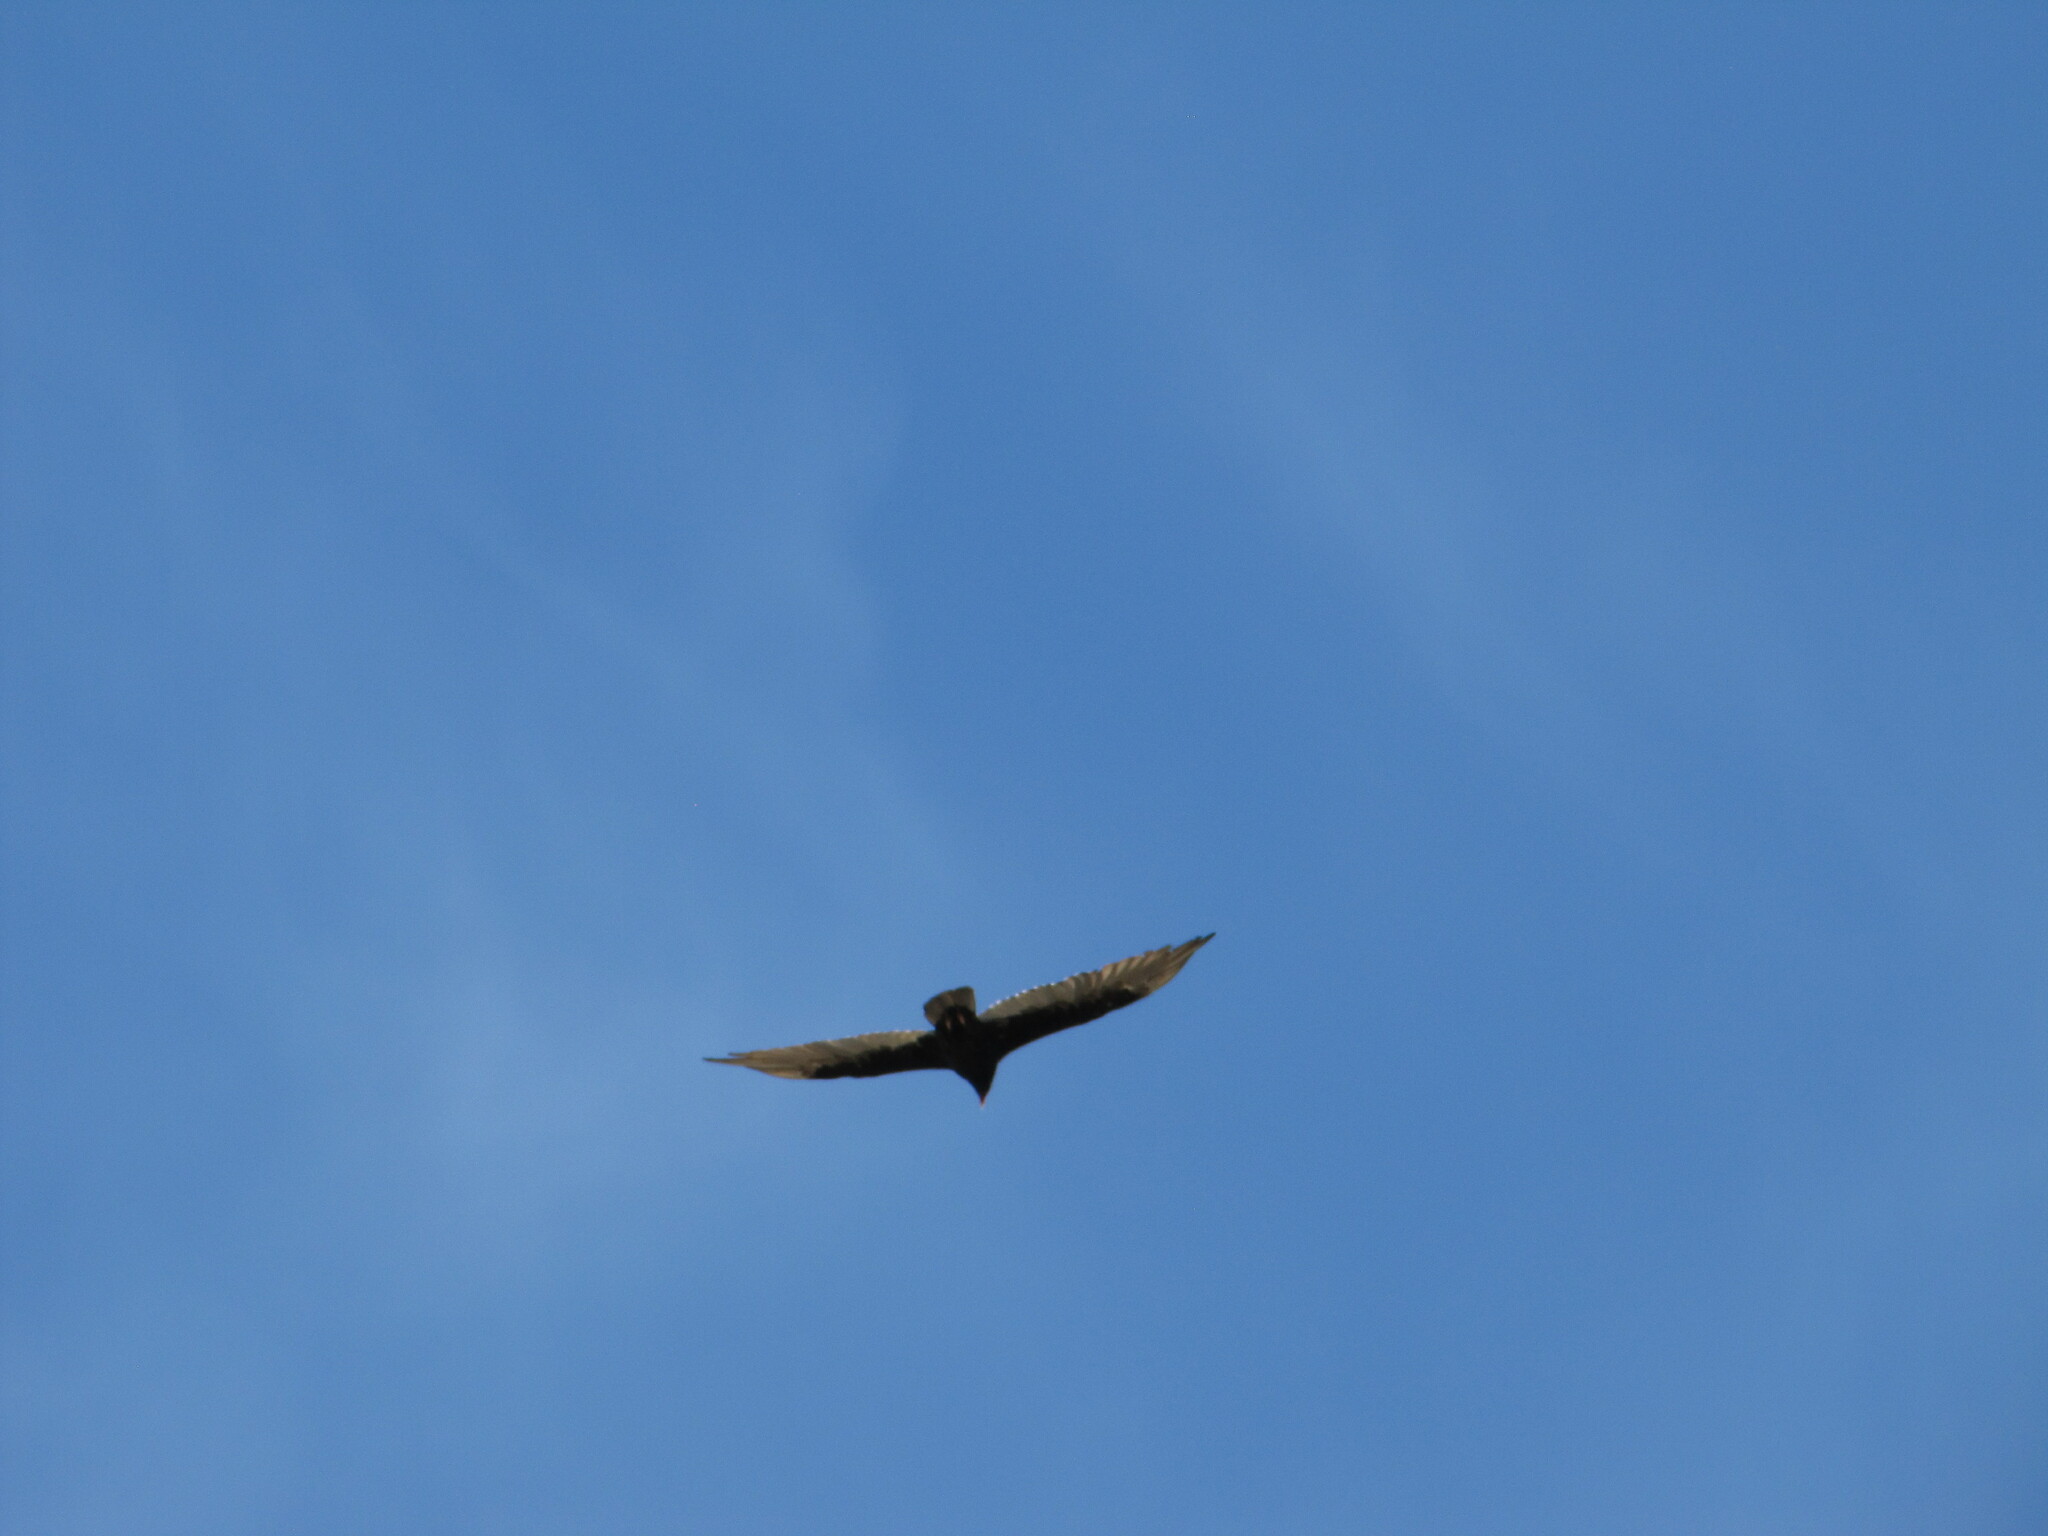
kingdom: Animalia
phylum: Chordata
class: Aves
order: Accipitriformes
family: Cathartidae
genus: Cathartes
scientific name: Cathartes aura
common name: Turkey vulture
